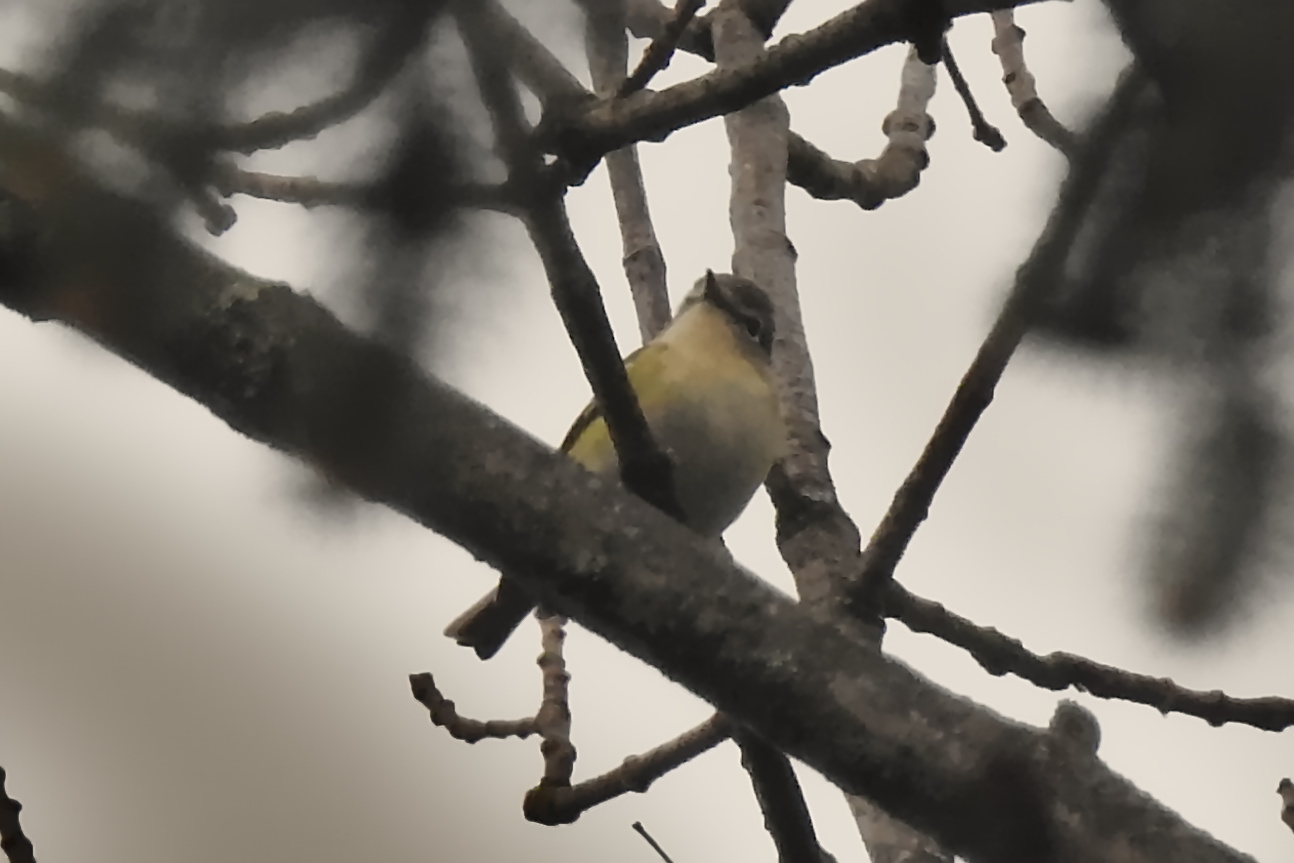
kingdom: Animalia
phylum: Chordata
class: Aves
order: Passeriformes
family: Vireonidae
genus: Vireo
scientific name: Vireo solitarius
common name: Blue-headed vireo
